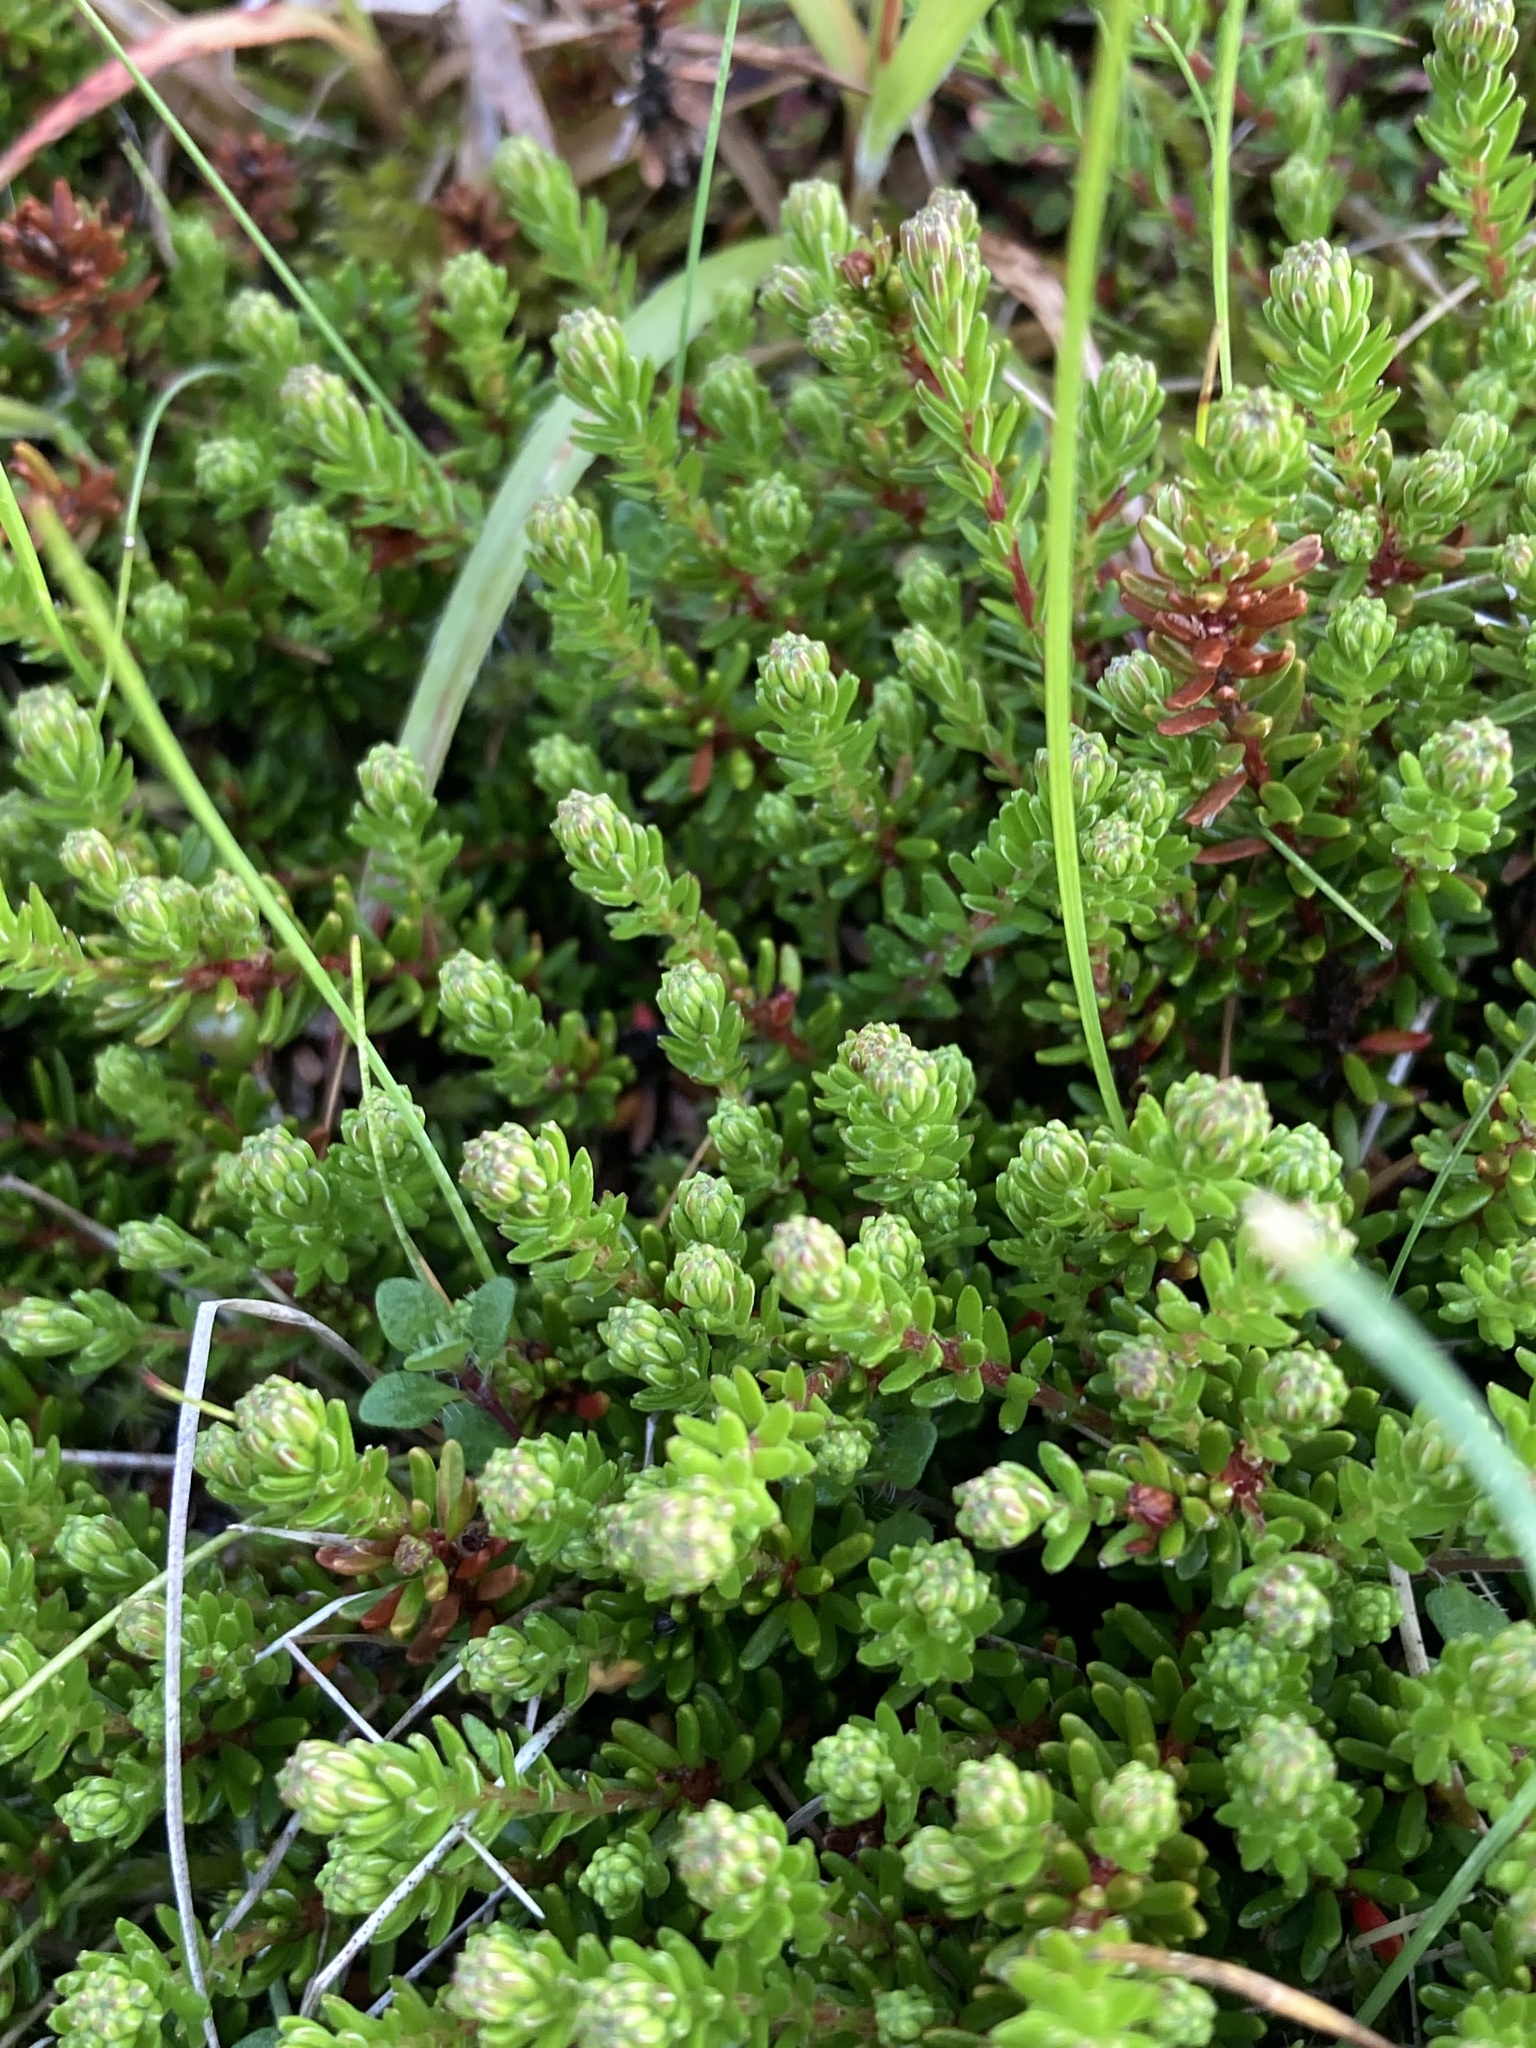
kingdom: Plantae
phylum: Tracheophyta
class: Magnoliopsida
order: Ericales
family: Ericaceae
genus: Empetrum
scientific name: Empetrum nigrum
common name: Black crowberry
